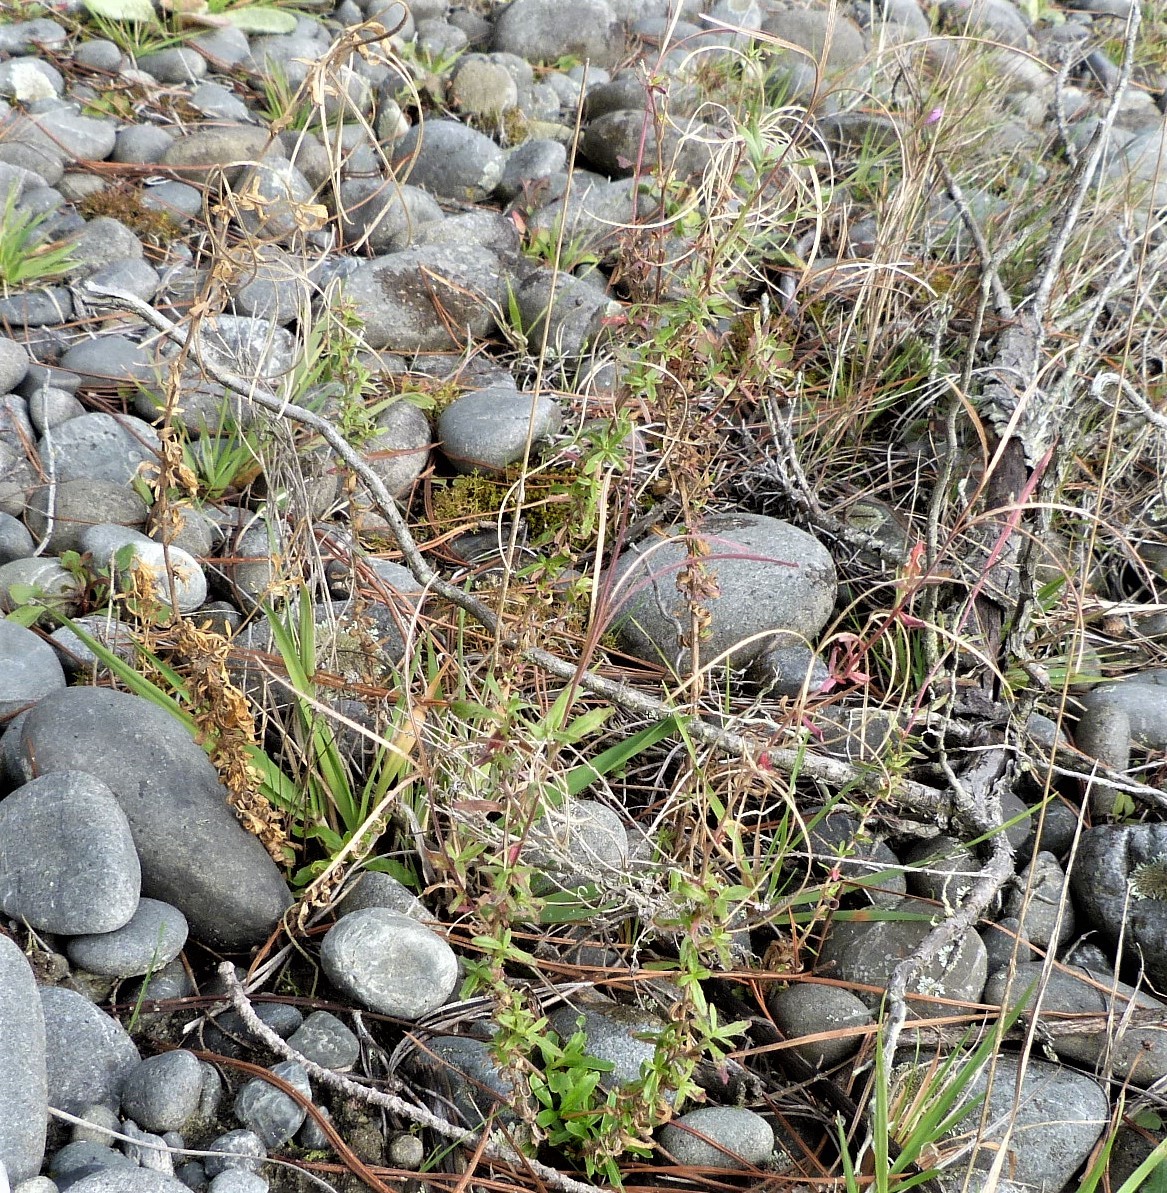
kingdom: Plantae
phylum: Tracheophyta
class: Magnoliopsida
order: Myrtales
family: Onagraceae
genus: Epilobium
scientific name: Epilobium billardierianum
